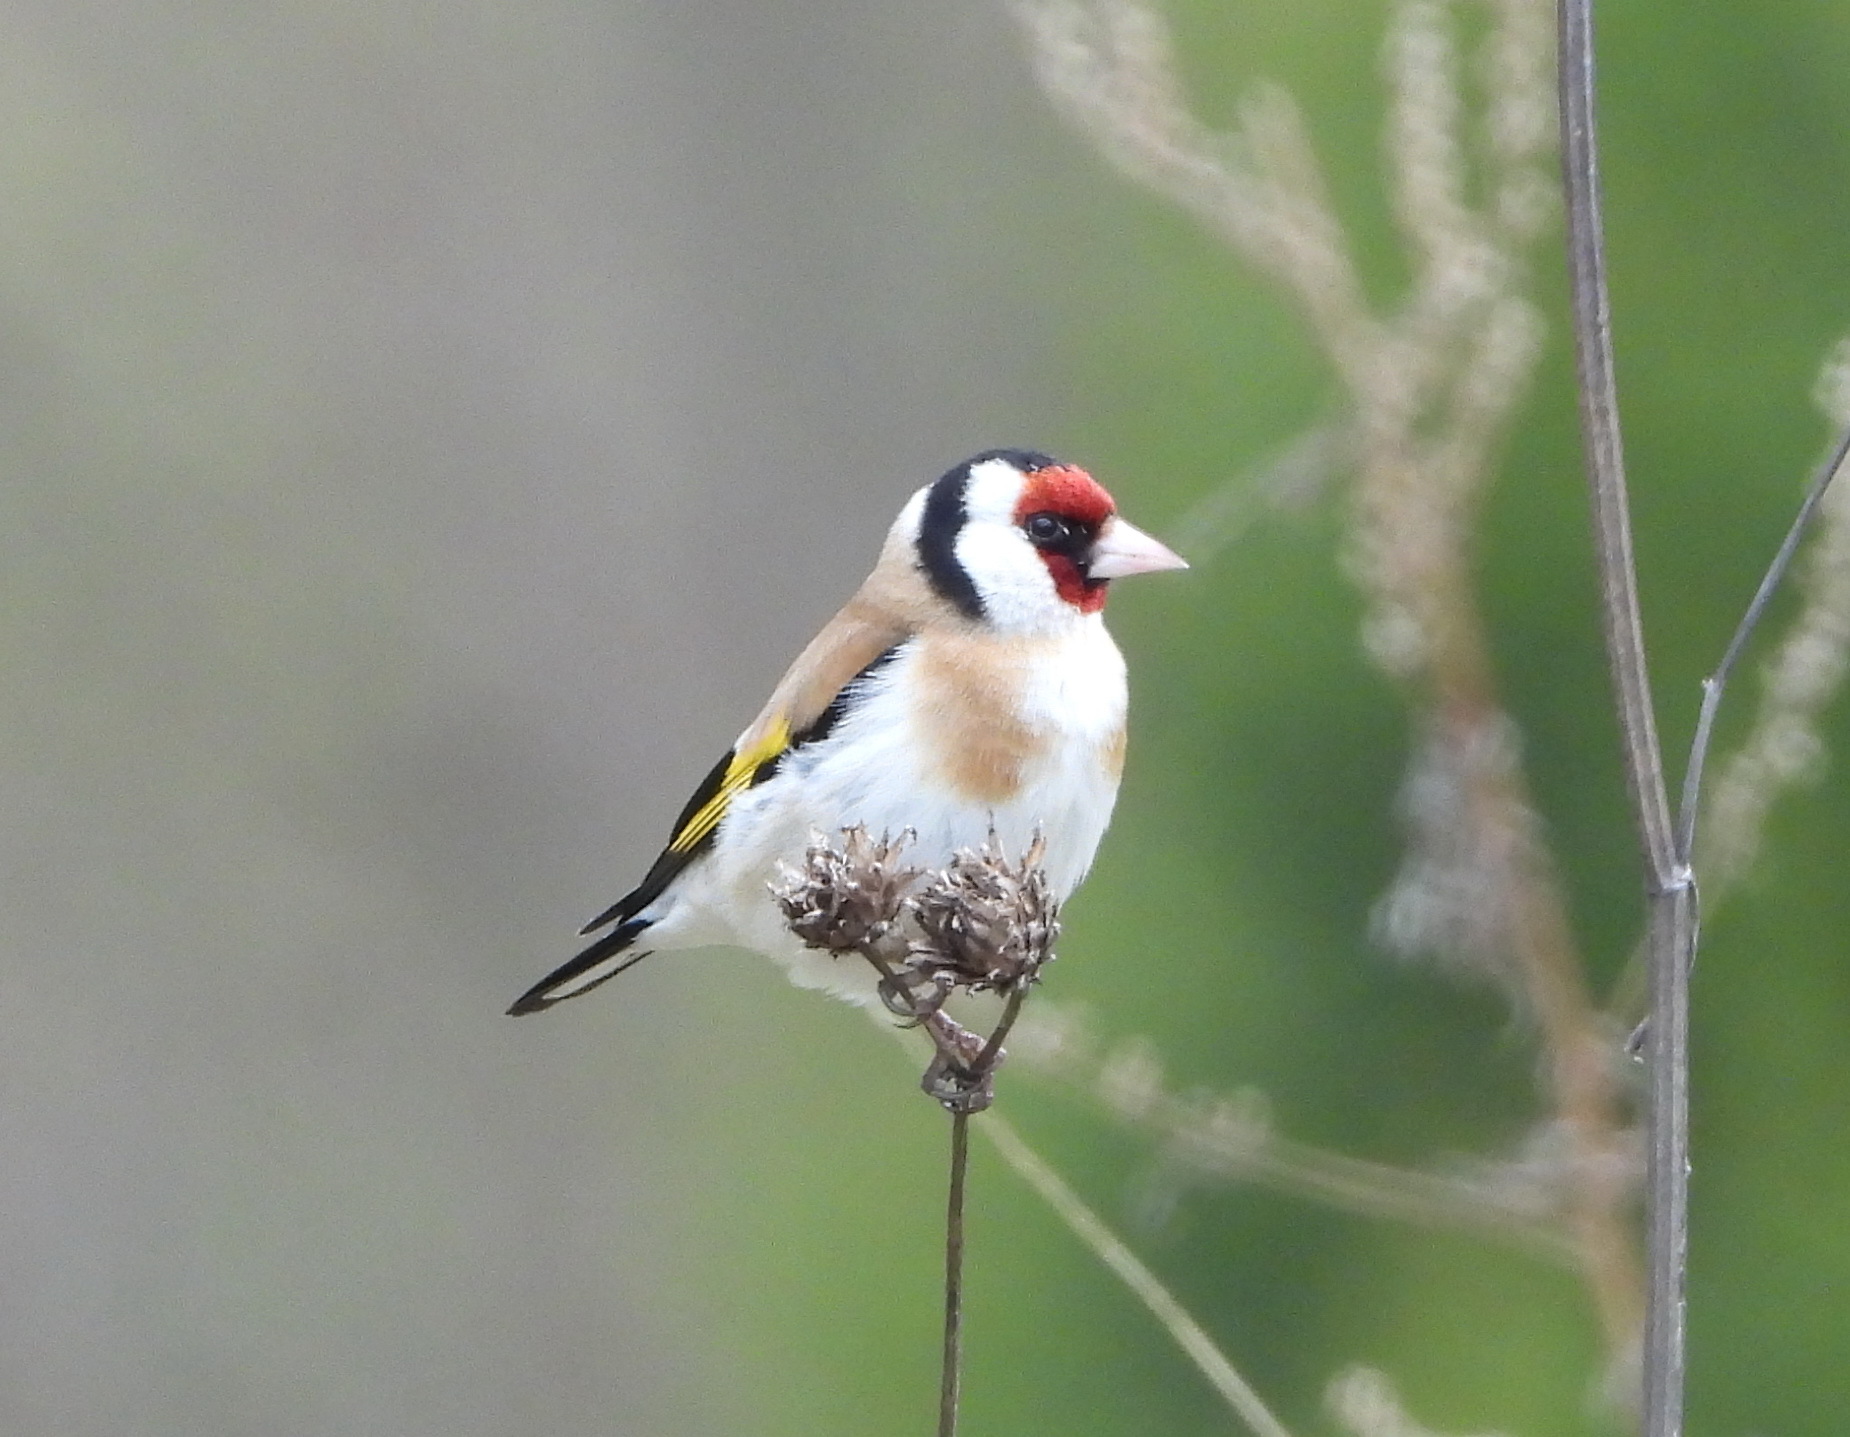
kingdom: Animalia
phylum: Chordata
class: Aves
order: Passeriformes
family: Fringillidae
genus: Carduelis
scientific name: Carduelis carduelis
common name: European goldfinch
